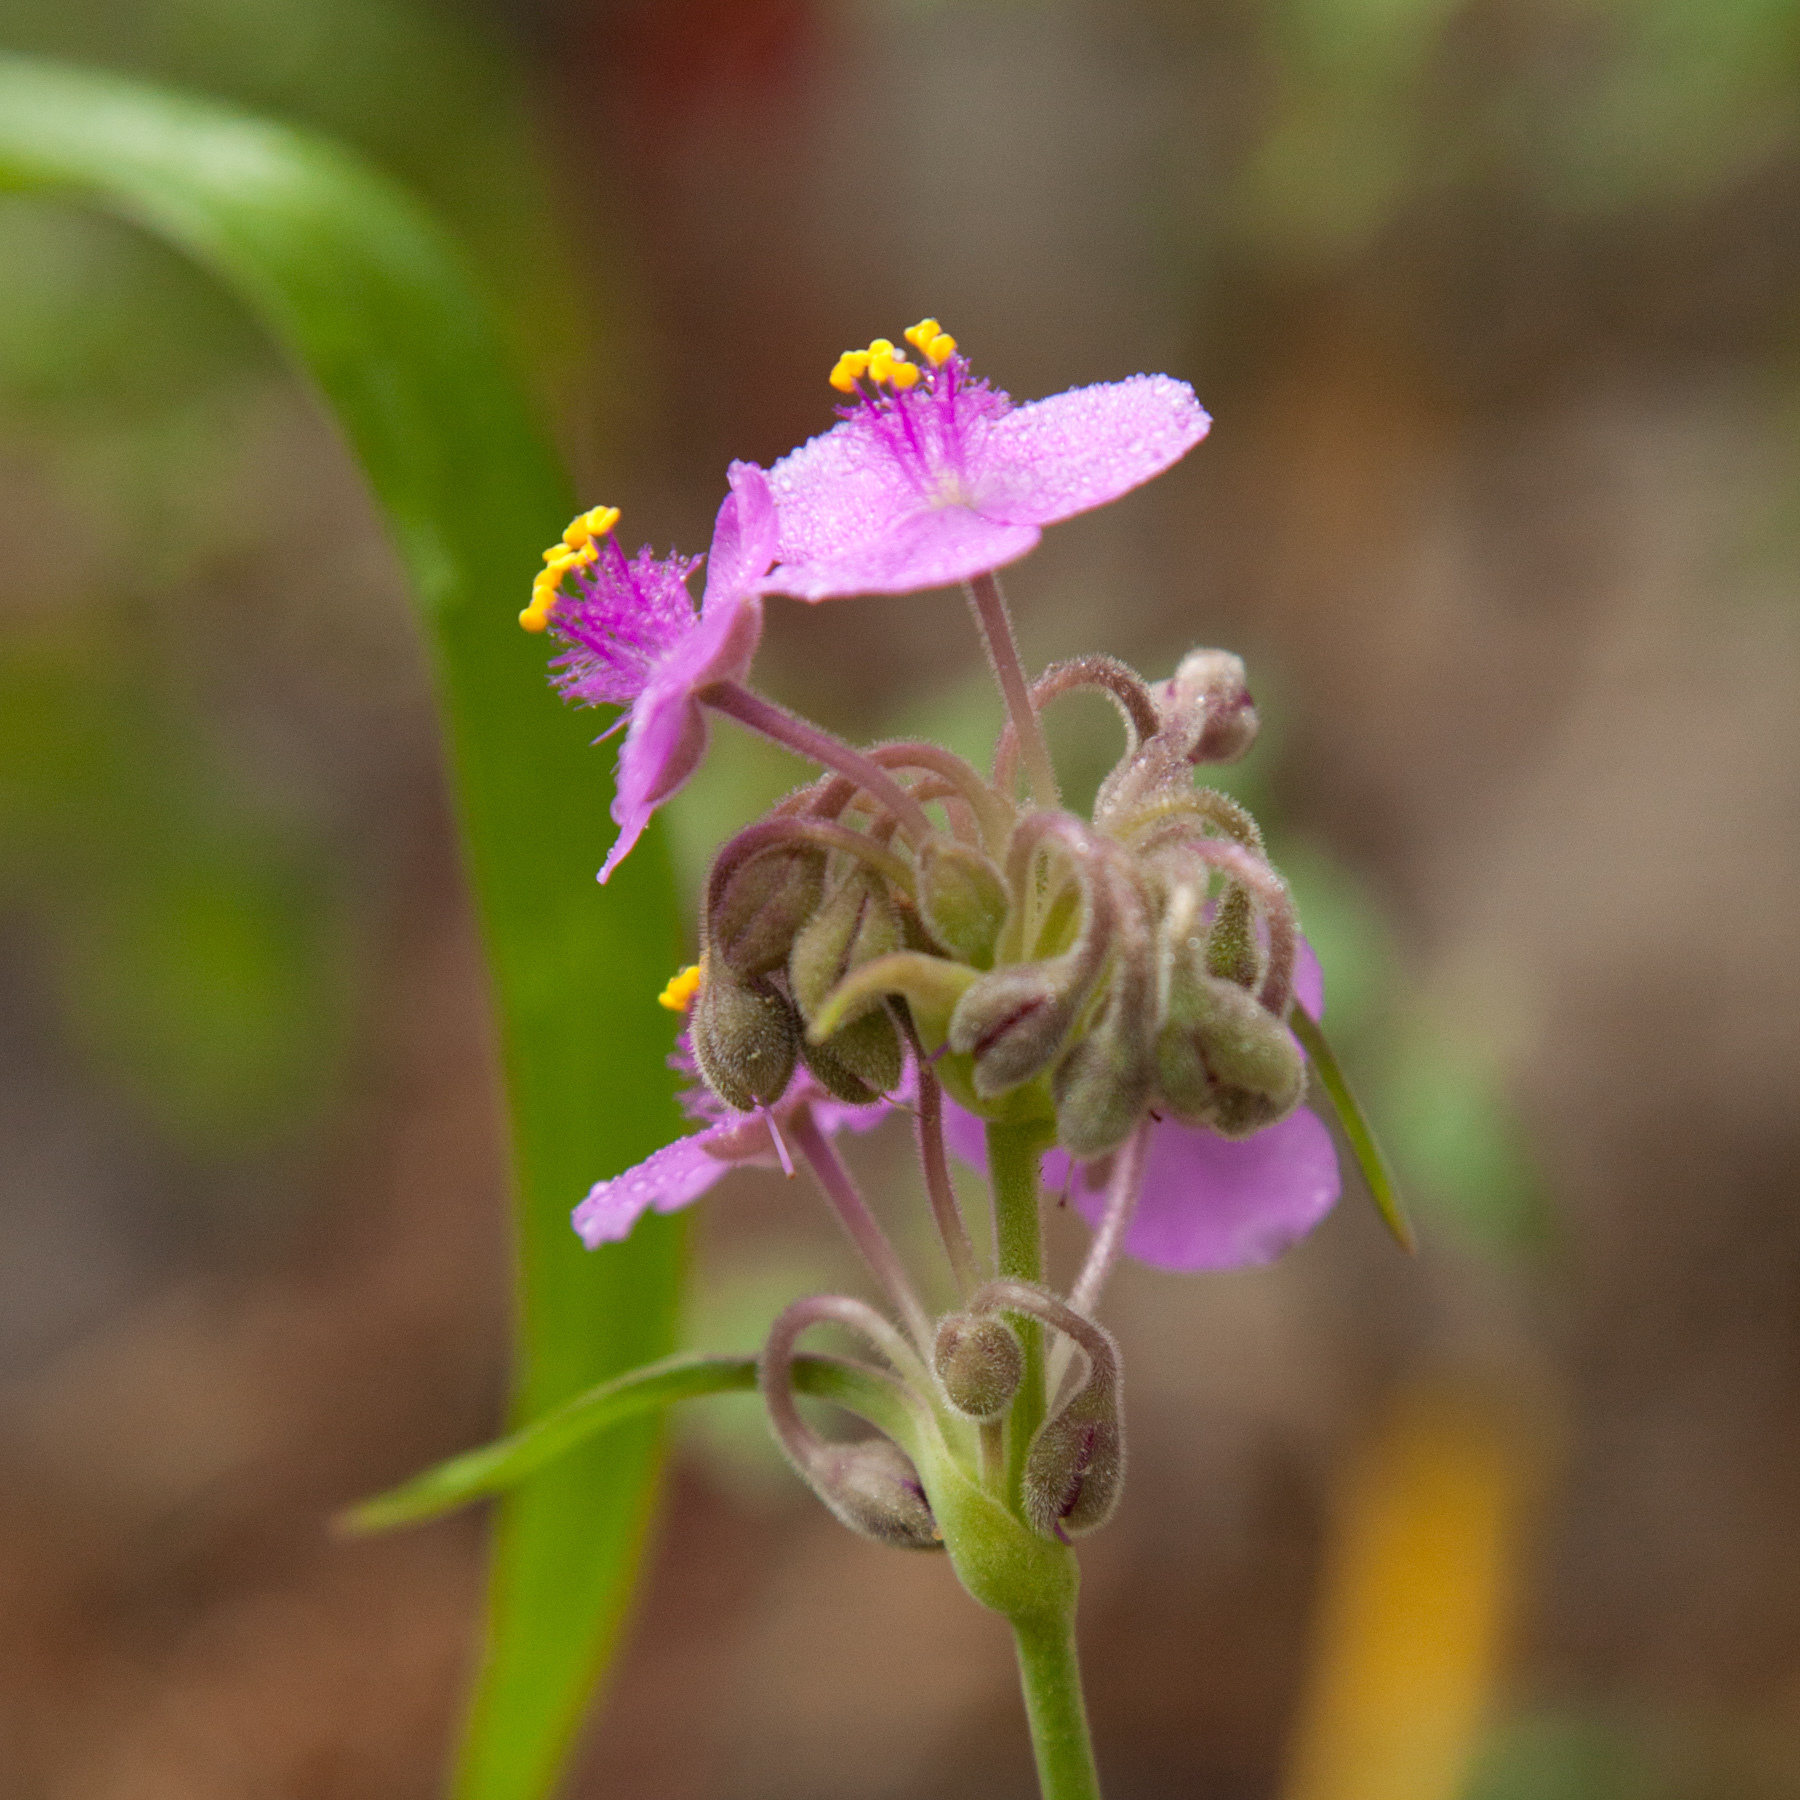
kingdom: Plantae
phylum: Tracheophyta
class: Liliopsida
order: Commelinales
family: Commelinaceae
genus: Tradescantia
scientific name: Tradescantia gigantea
